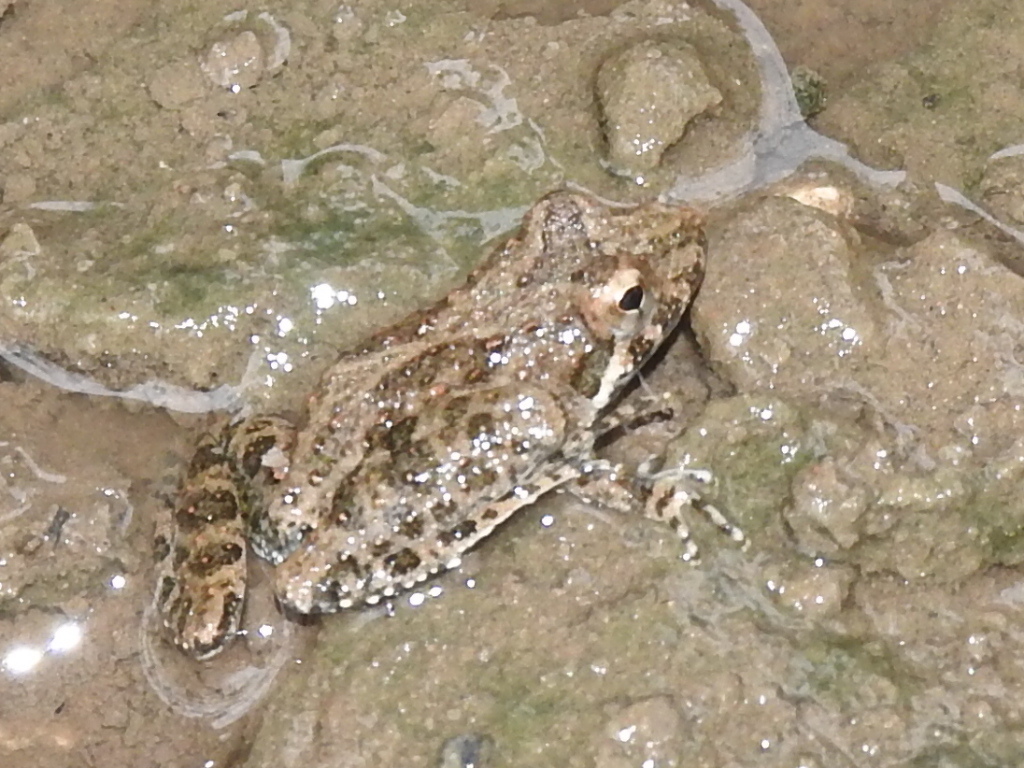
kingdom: Animalia
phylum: Chordata
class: Amphibia
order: Anura
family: Hylidae
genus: Acris
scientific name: Acris blanchardi
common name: Blanchard's cricket frog
